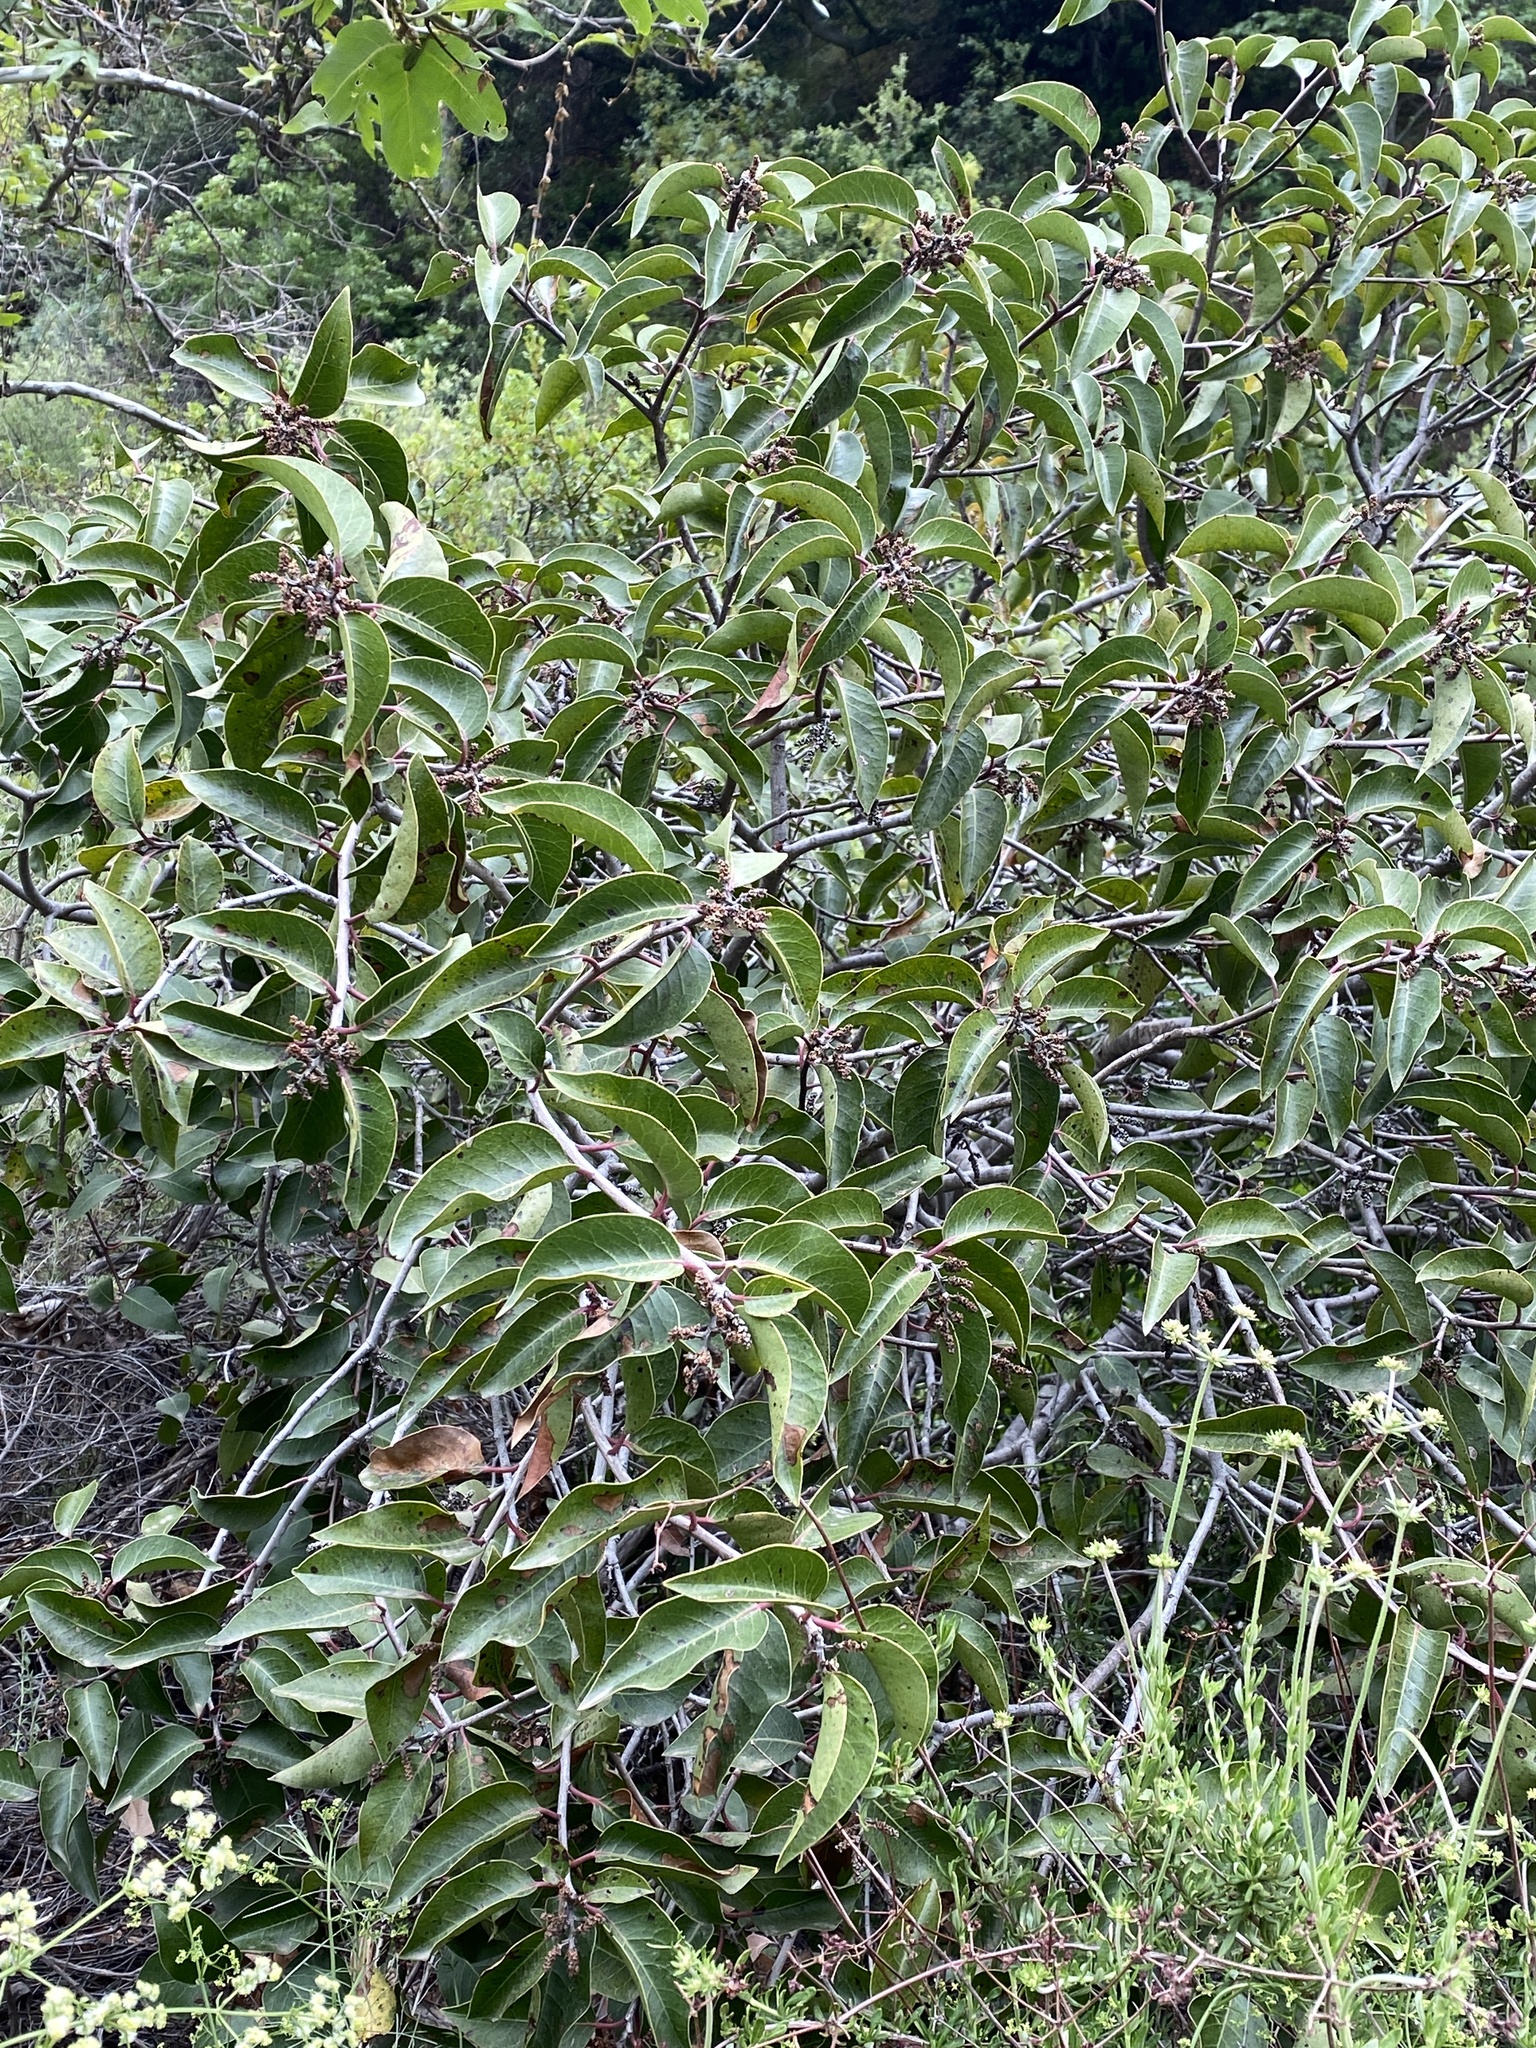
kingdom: Plantae
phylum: Tracheophyta
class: Magnoliopsida
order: Sapindales
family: Anacardiaceae
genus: Rhus
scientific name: Rhus ovata
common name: Sugar sumac
